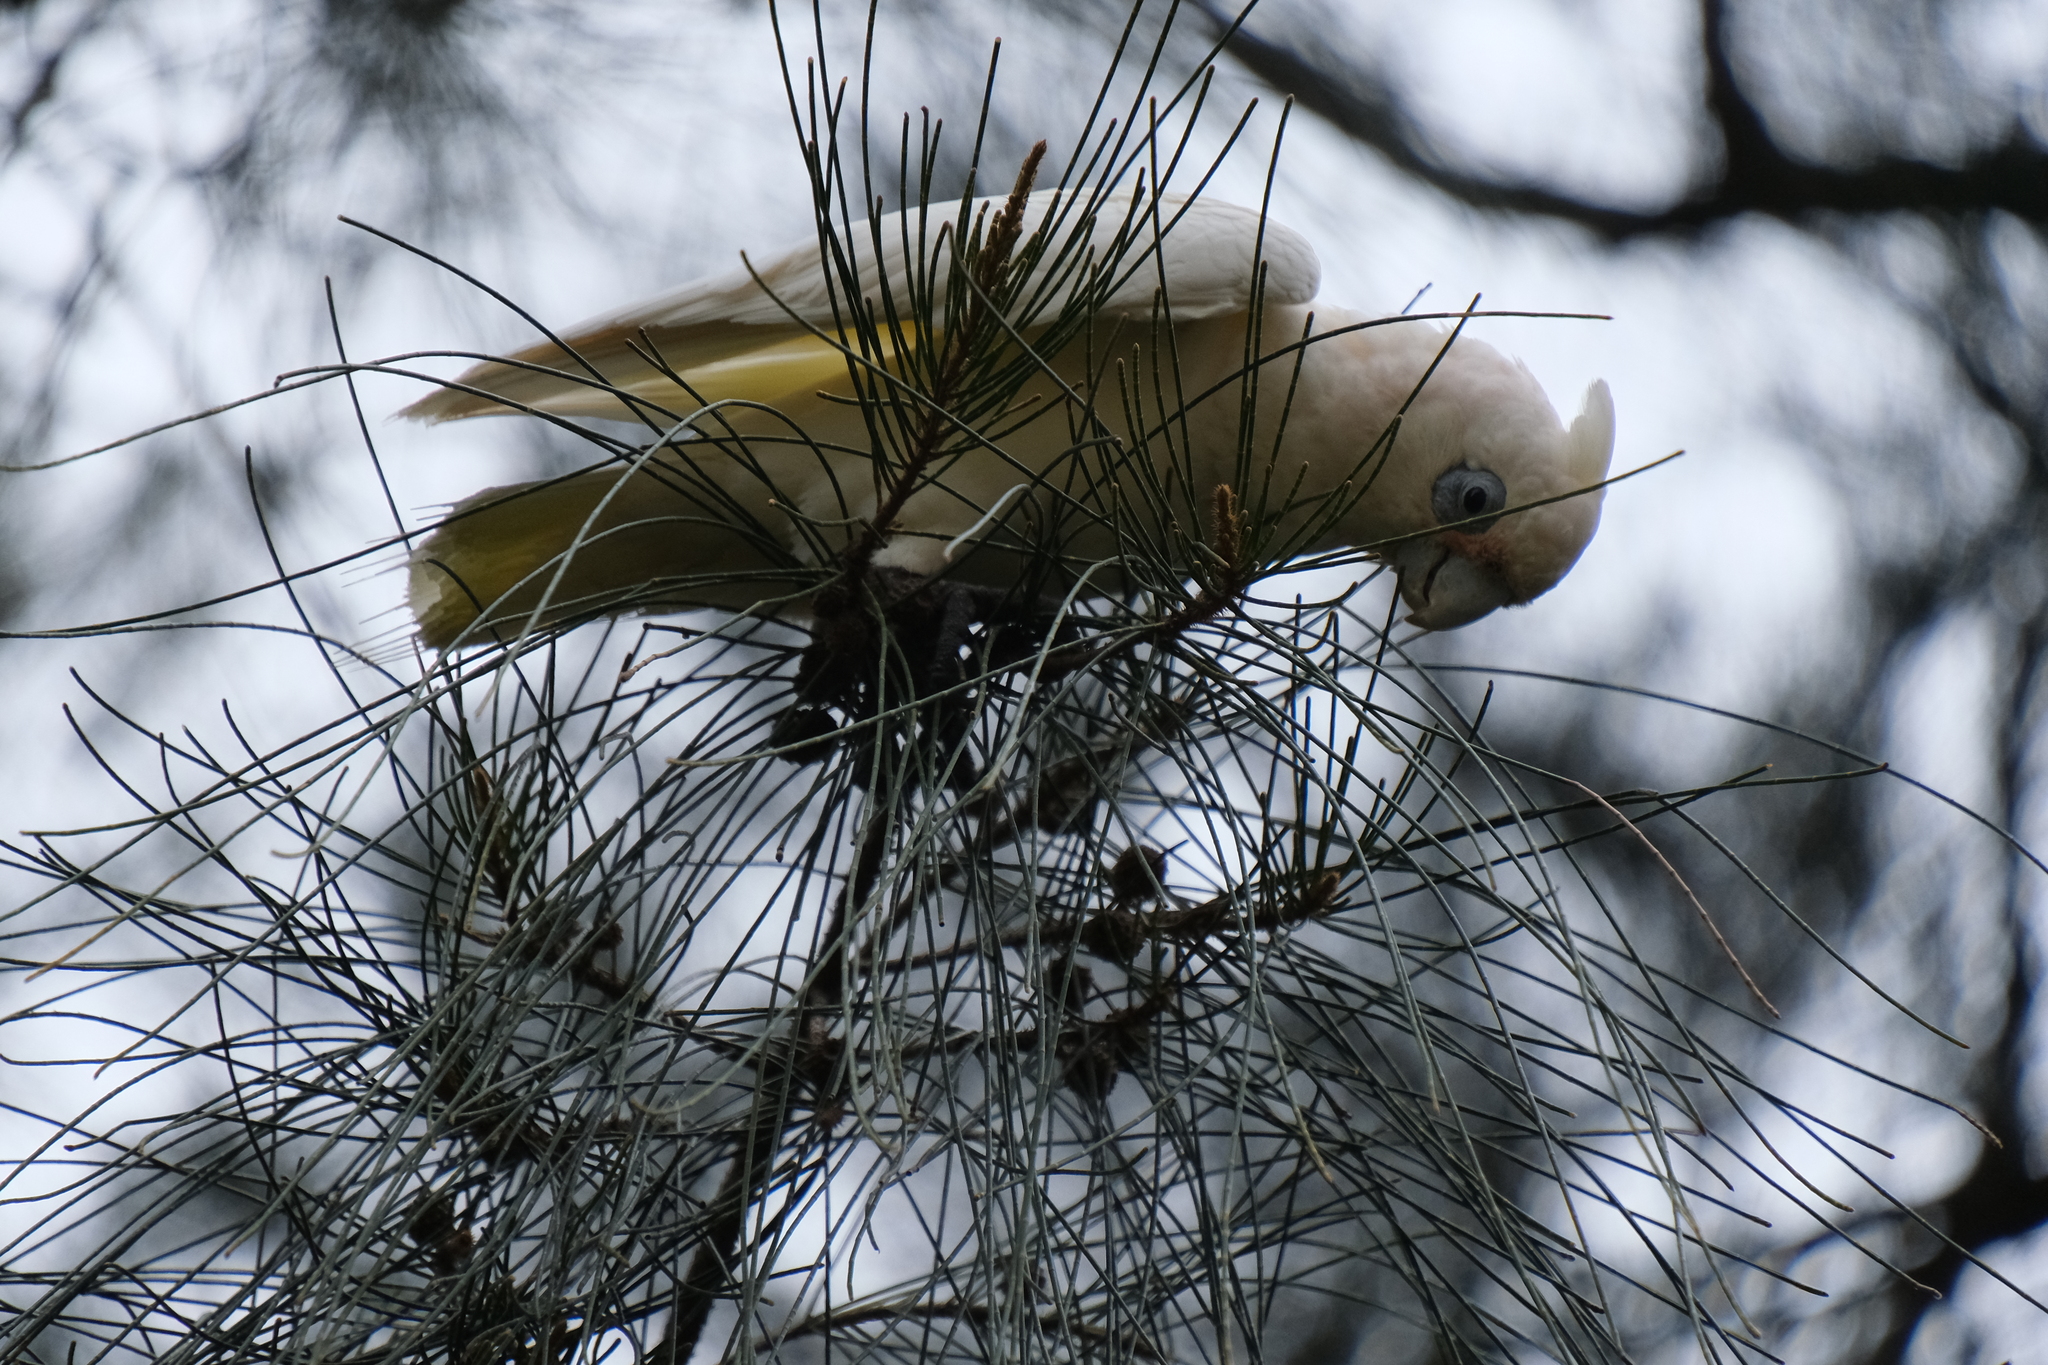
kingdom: Animalia
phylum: Chordata
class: Aves
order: Psittaciformes
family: Psittacidae
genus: Cacatua
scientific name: Cacatua sanguinea
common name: Little corella
